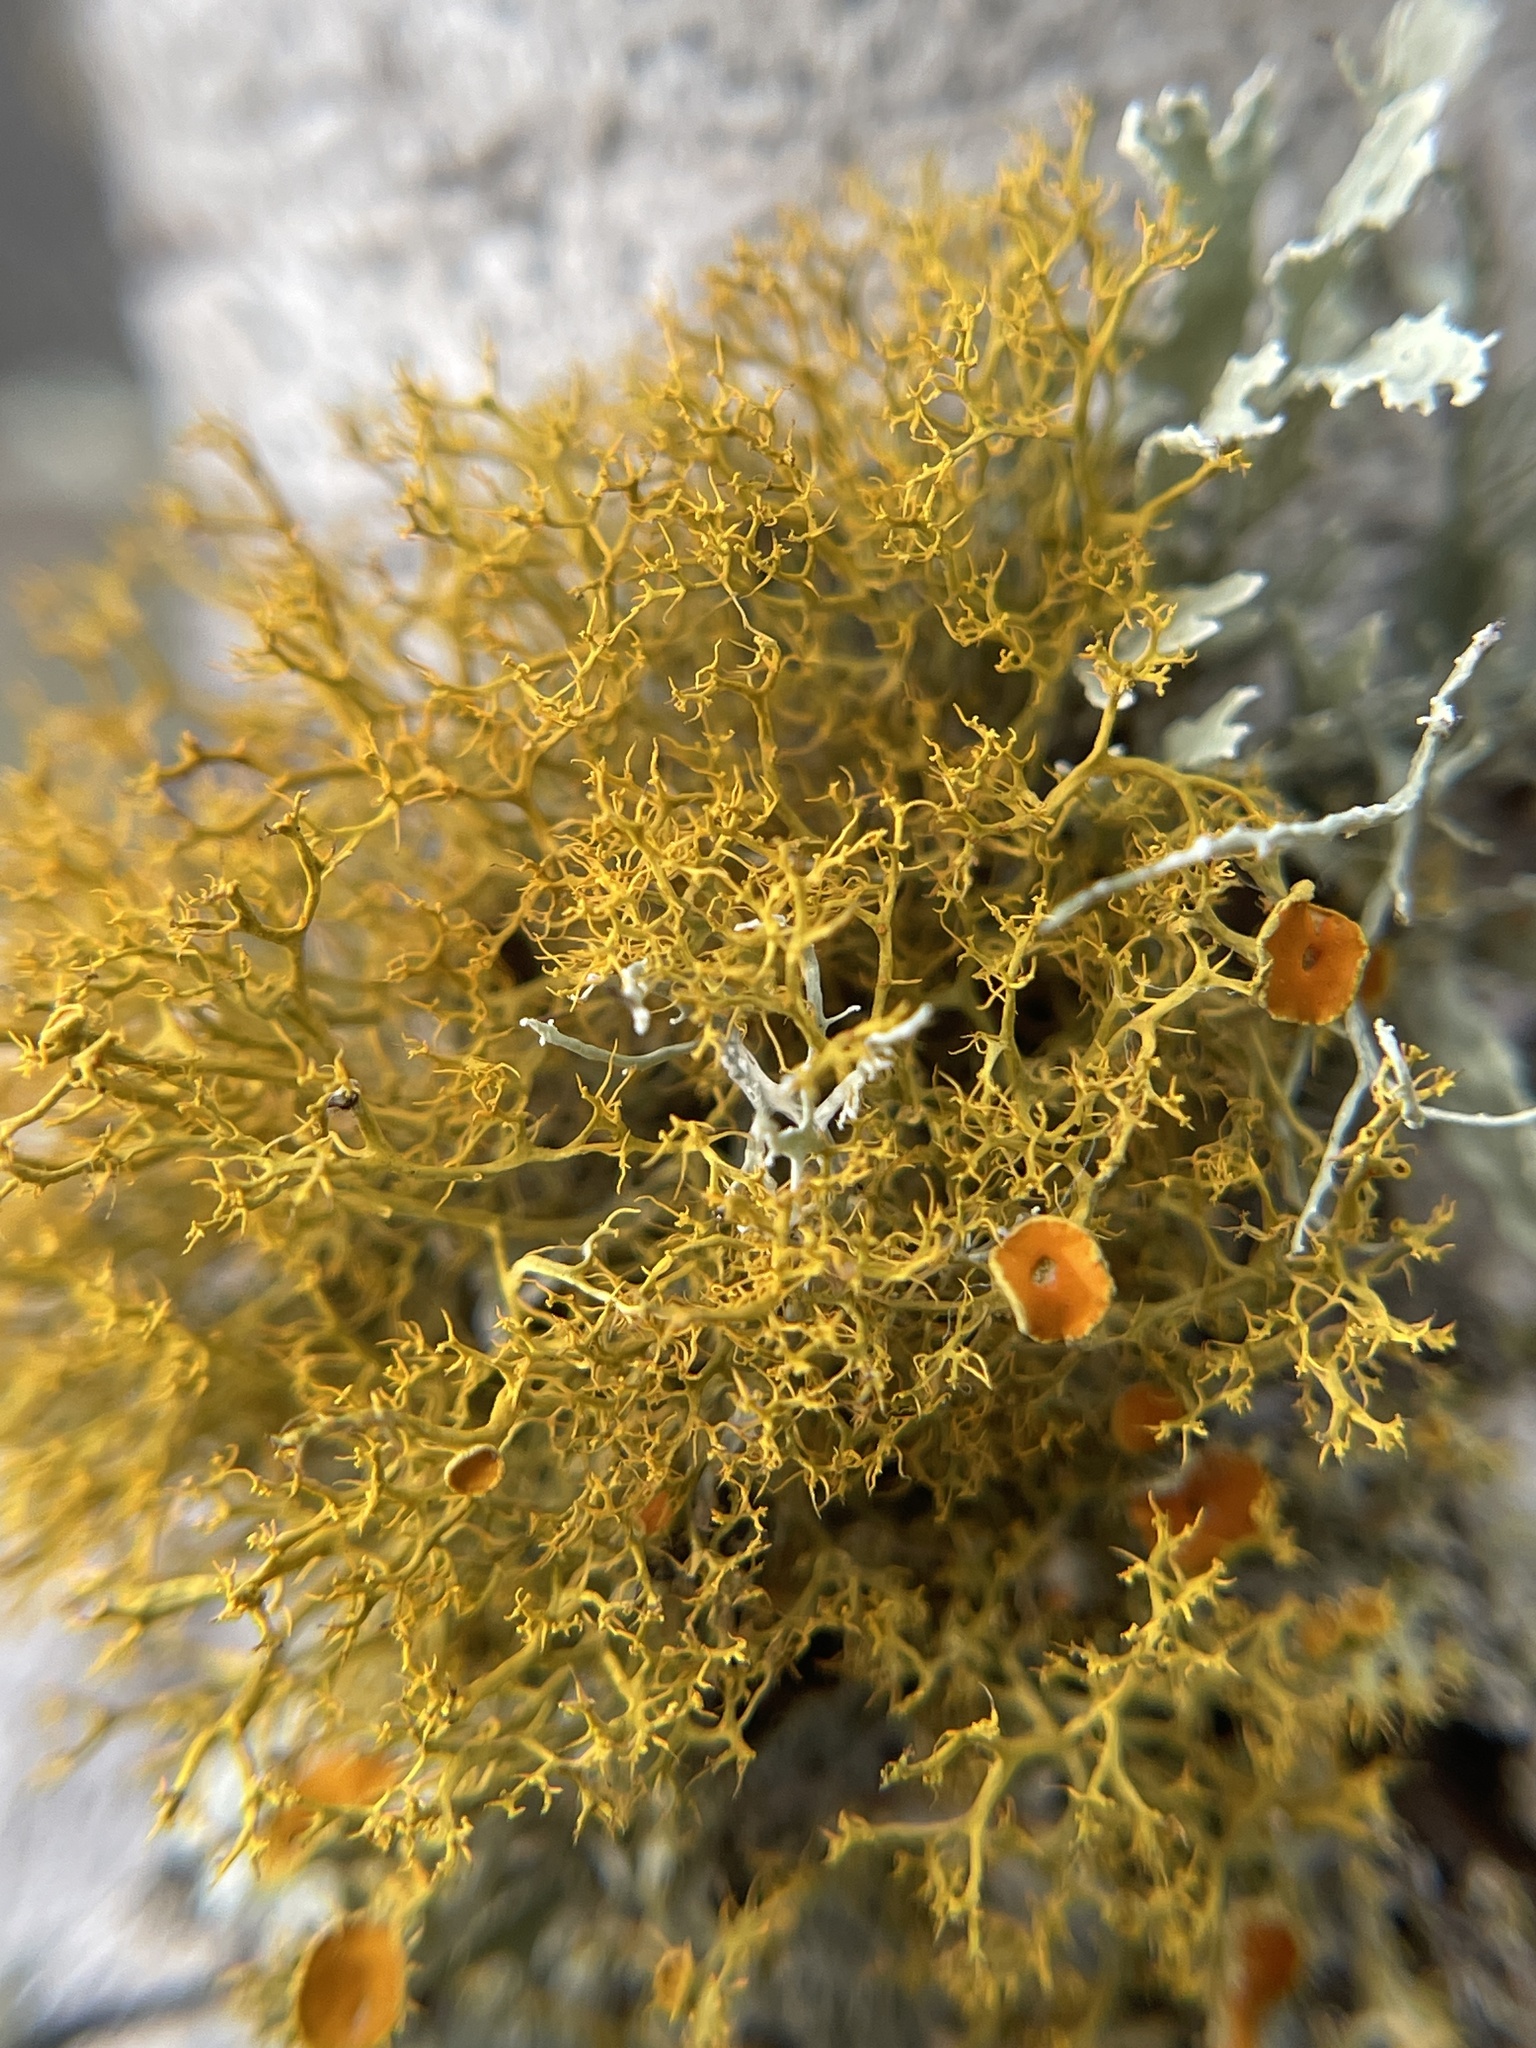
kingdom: Fungi
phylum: Ascomycota
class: Lecanoromycetes
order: Teloschistales
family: Teloschistaceae
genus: Teloschistes
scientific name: Teloschistes exilis
